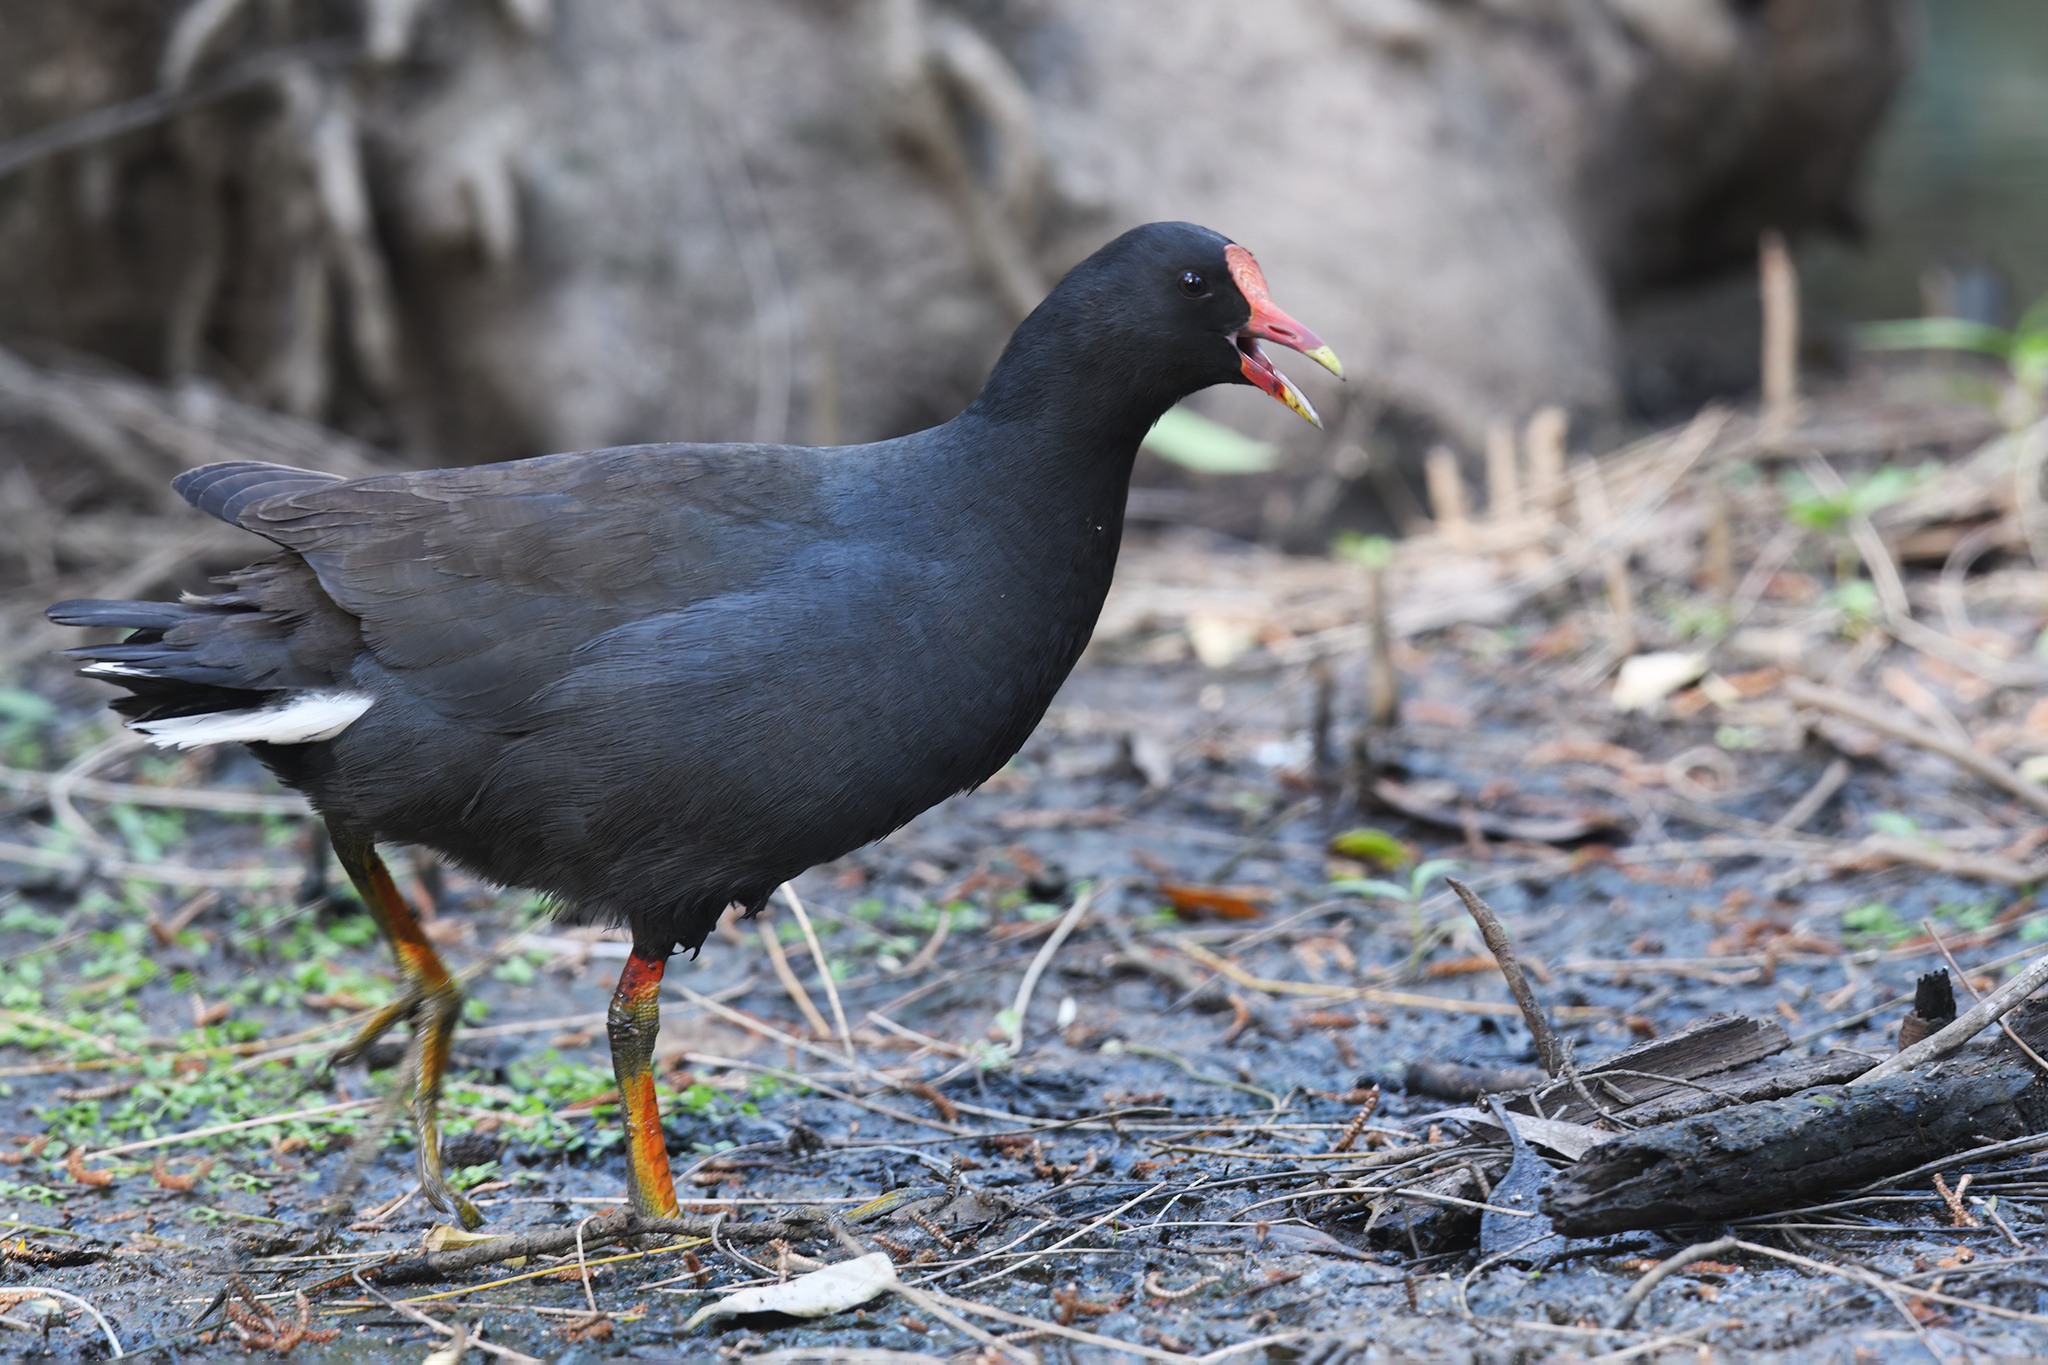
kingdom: Animalia
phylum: Chordata
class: Aves
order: Gruiformes
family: Rallidae
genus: Gallinula
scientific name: Gallinula tenebrosa
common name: Dusky moorhen
